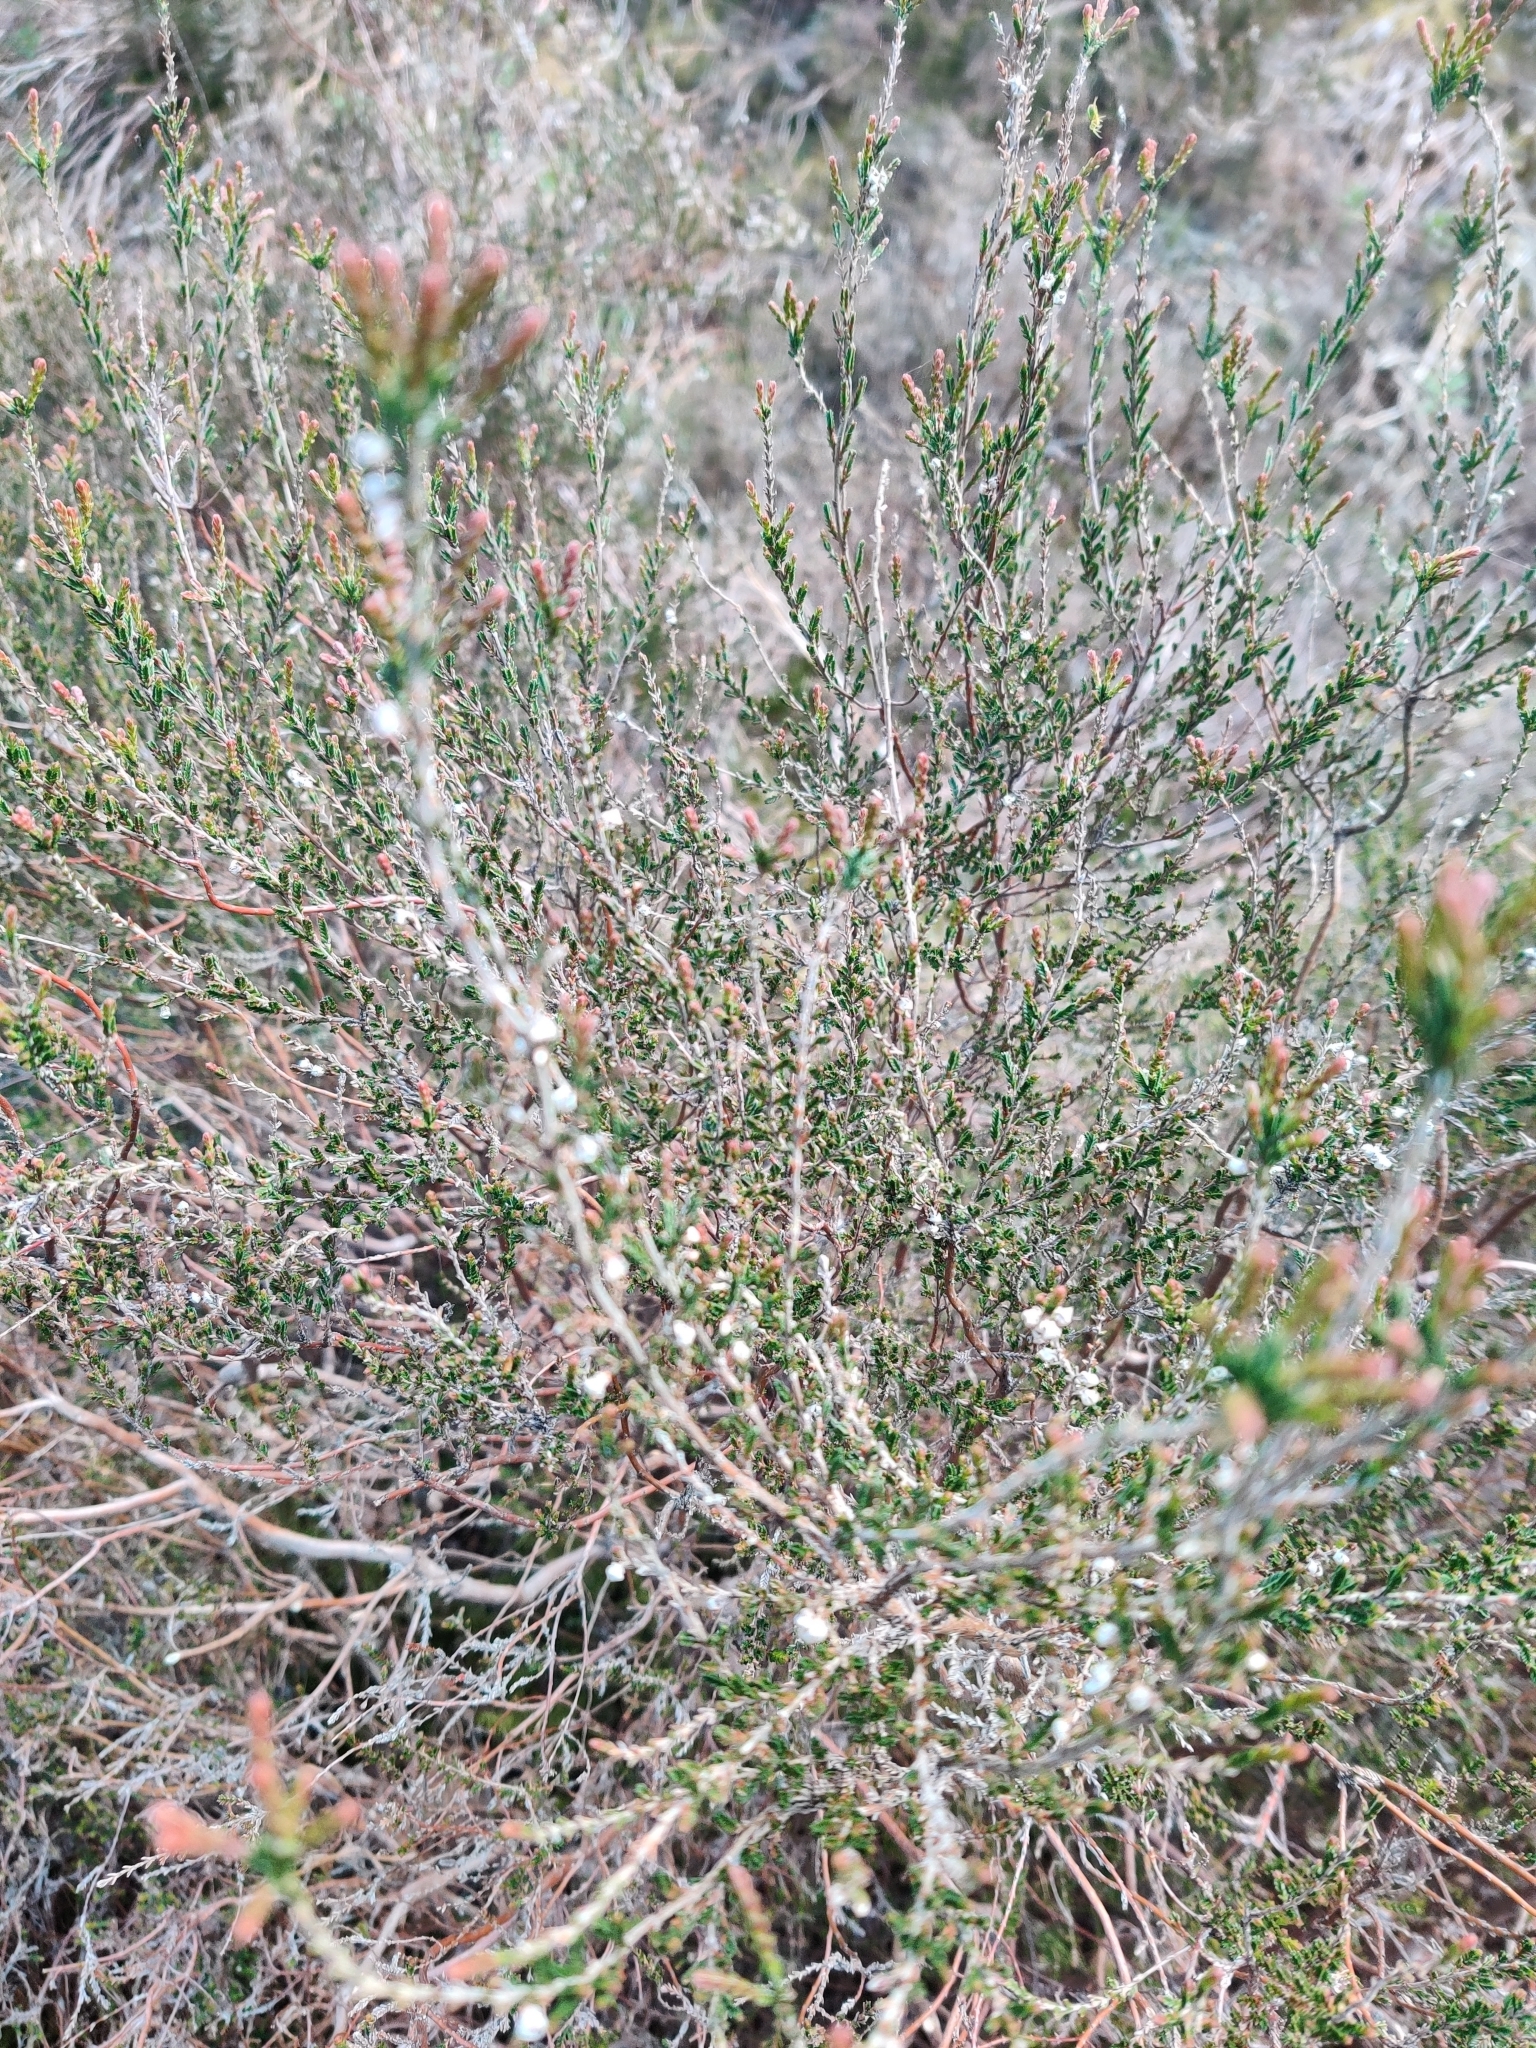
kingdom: Plantae
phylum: Tracheophyta
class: Magnoliopsida
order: Ericales
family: Ericaceae
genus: Calluna
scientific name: Calluna vulgaris
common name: Heather
